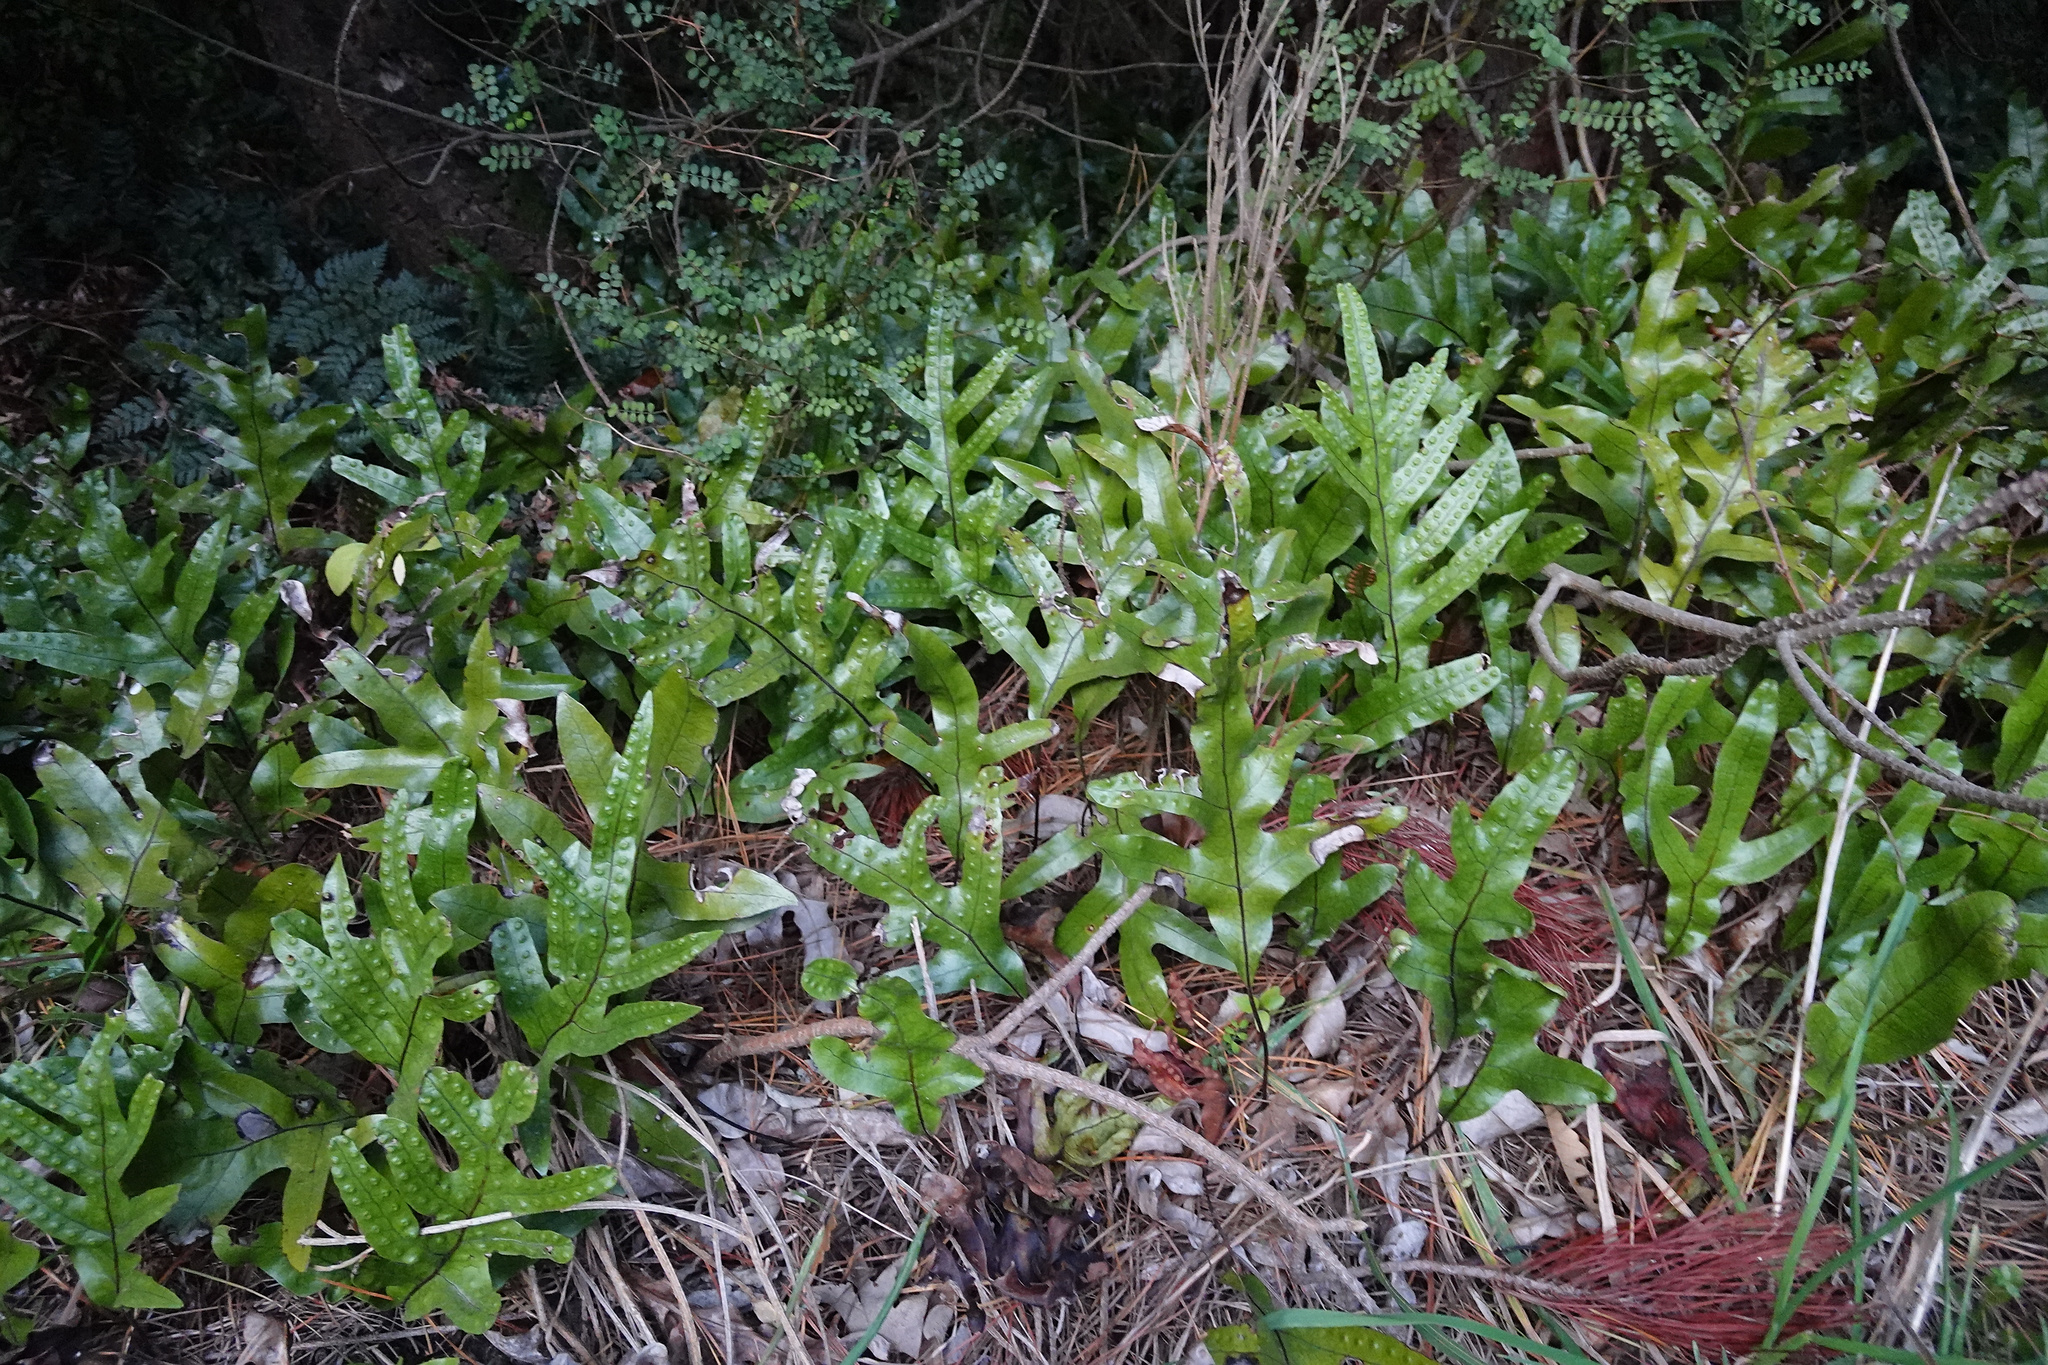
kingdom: Plantae
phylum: Tracheophyta
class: Polypodiopsida
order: Polypodiales
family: Polypodiaceae
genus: Lecanopteris
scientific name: Lecanopteris pustulata
